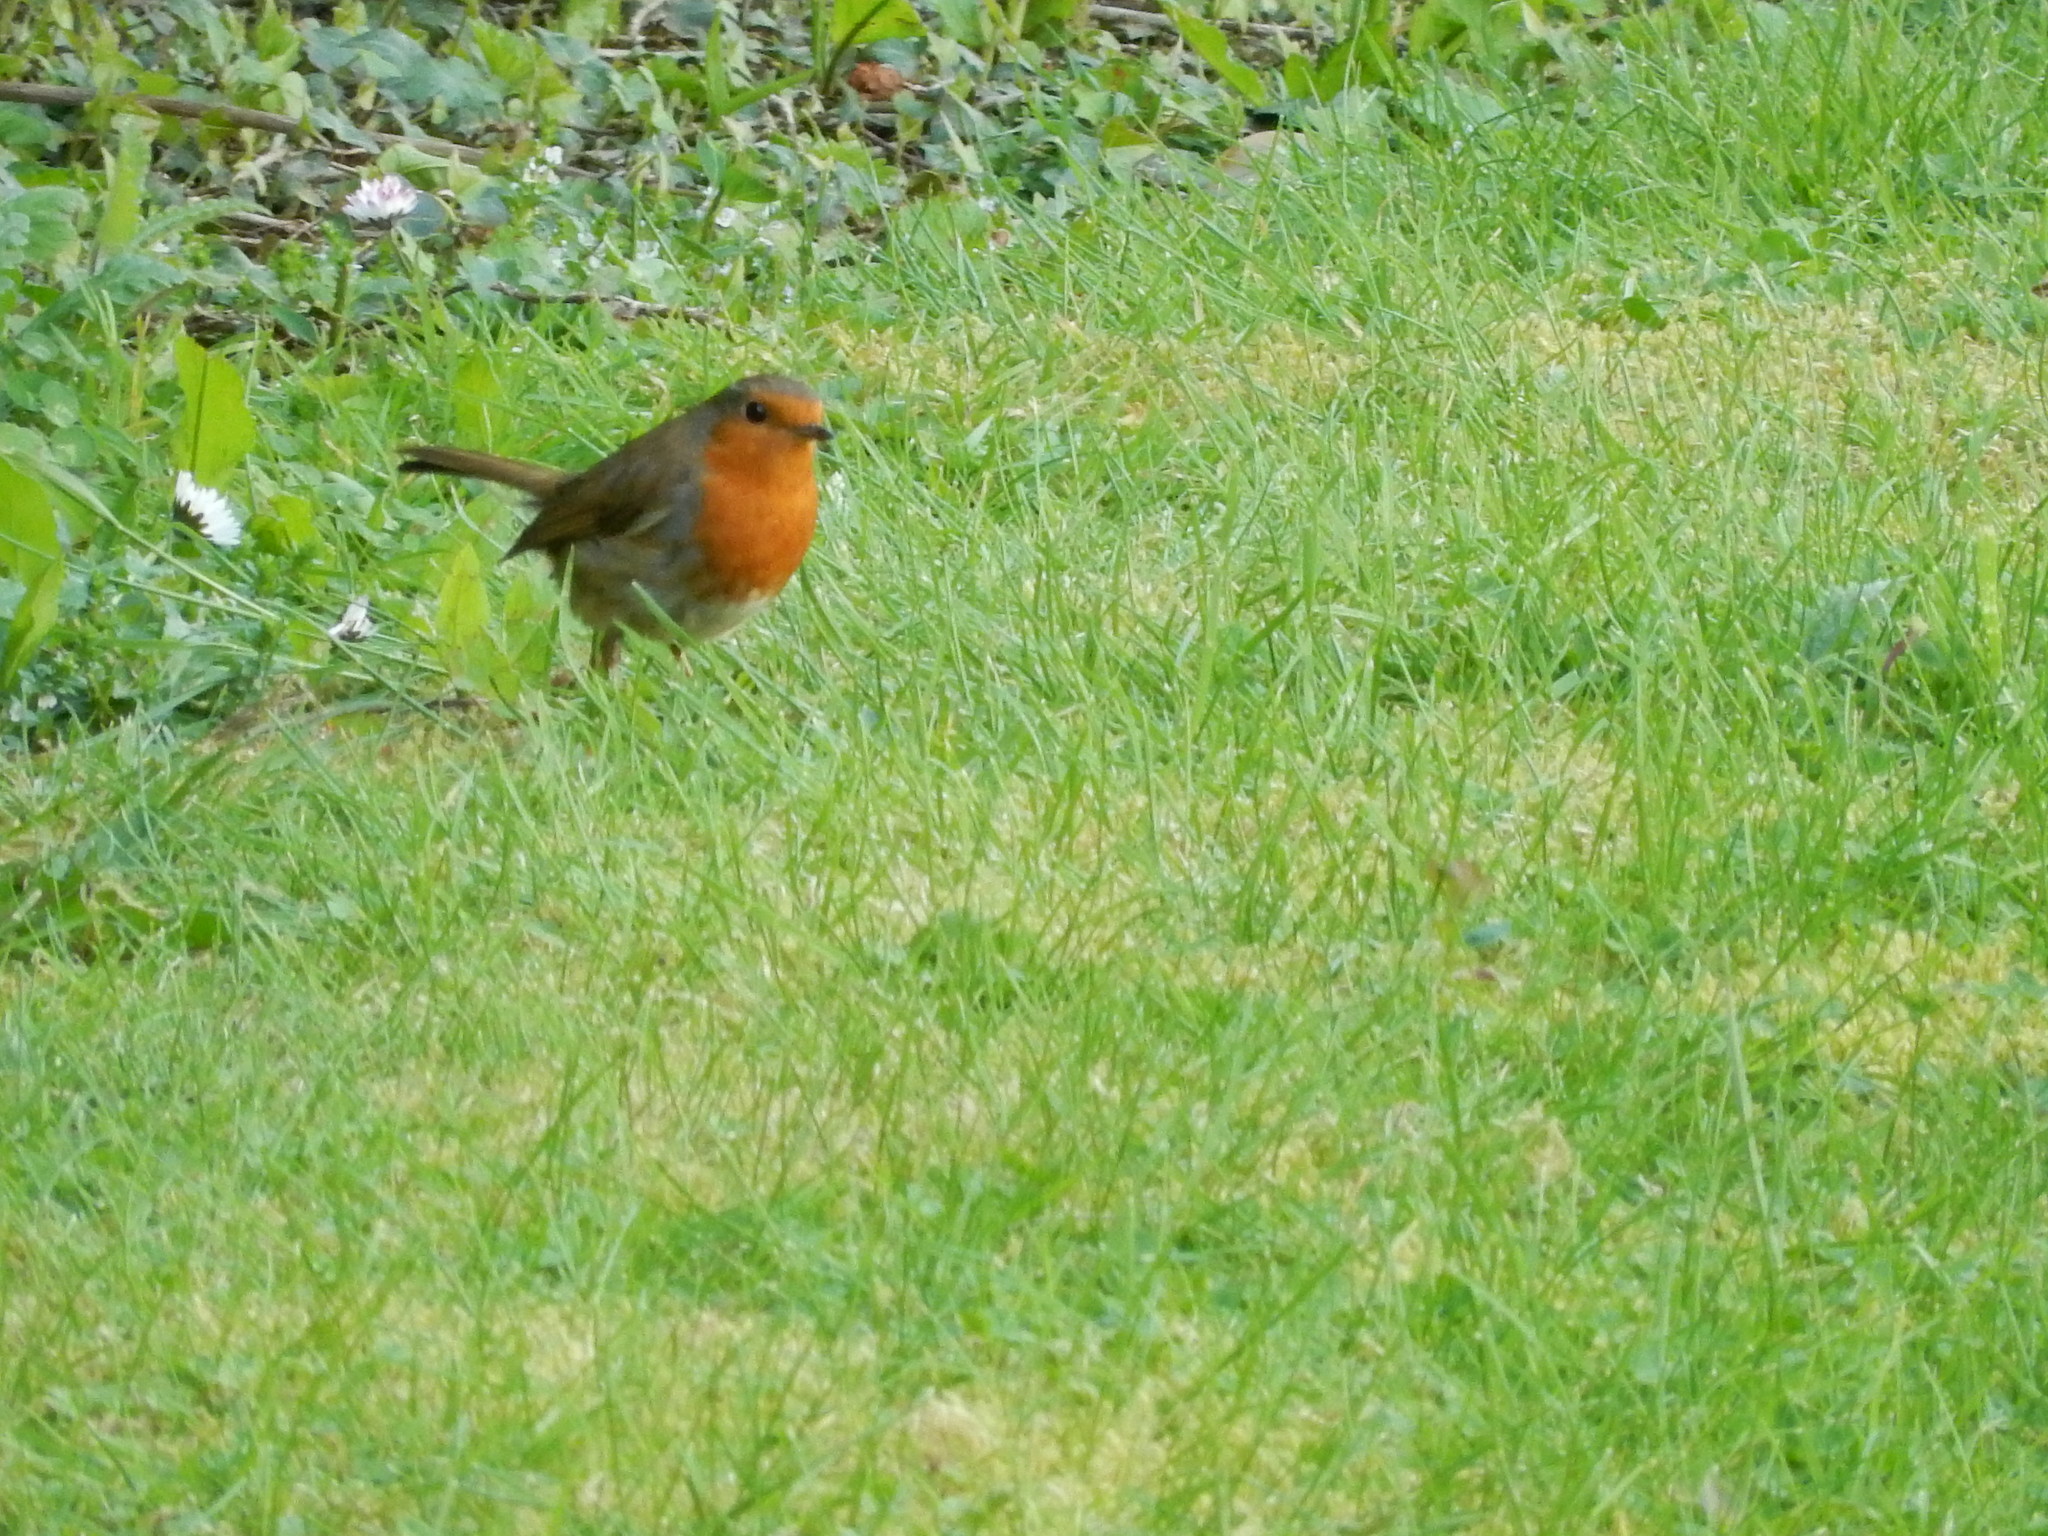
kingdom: Animalia
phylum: Chordata
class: Aves
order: Passeriformes
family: Muscicapidae
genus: Erithacus
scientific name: Erithacus rubecula
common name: European robin
